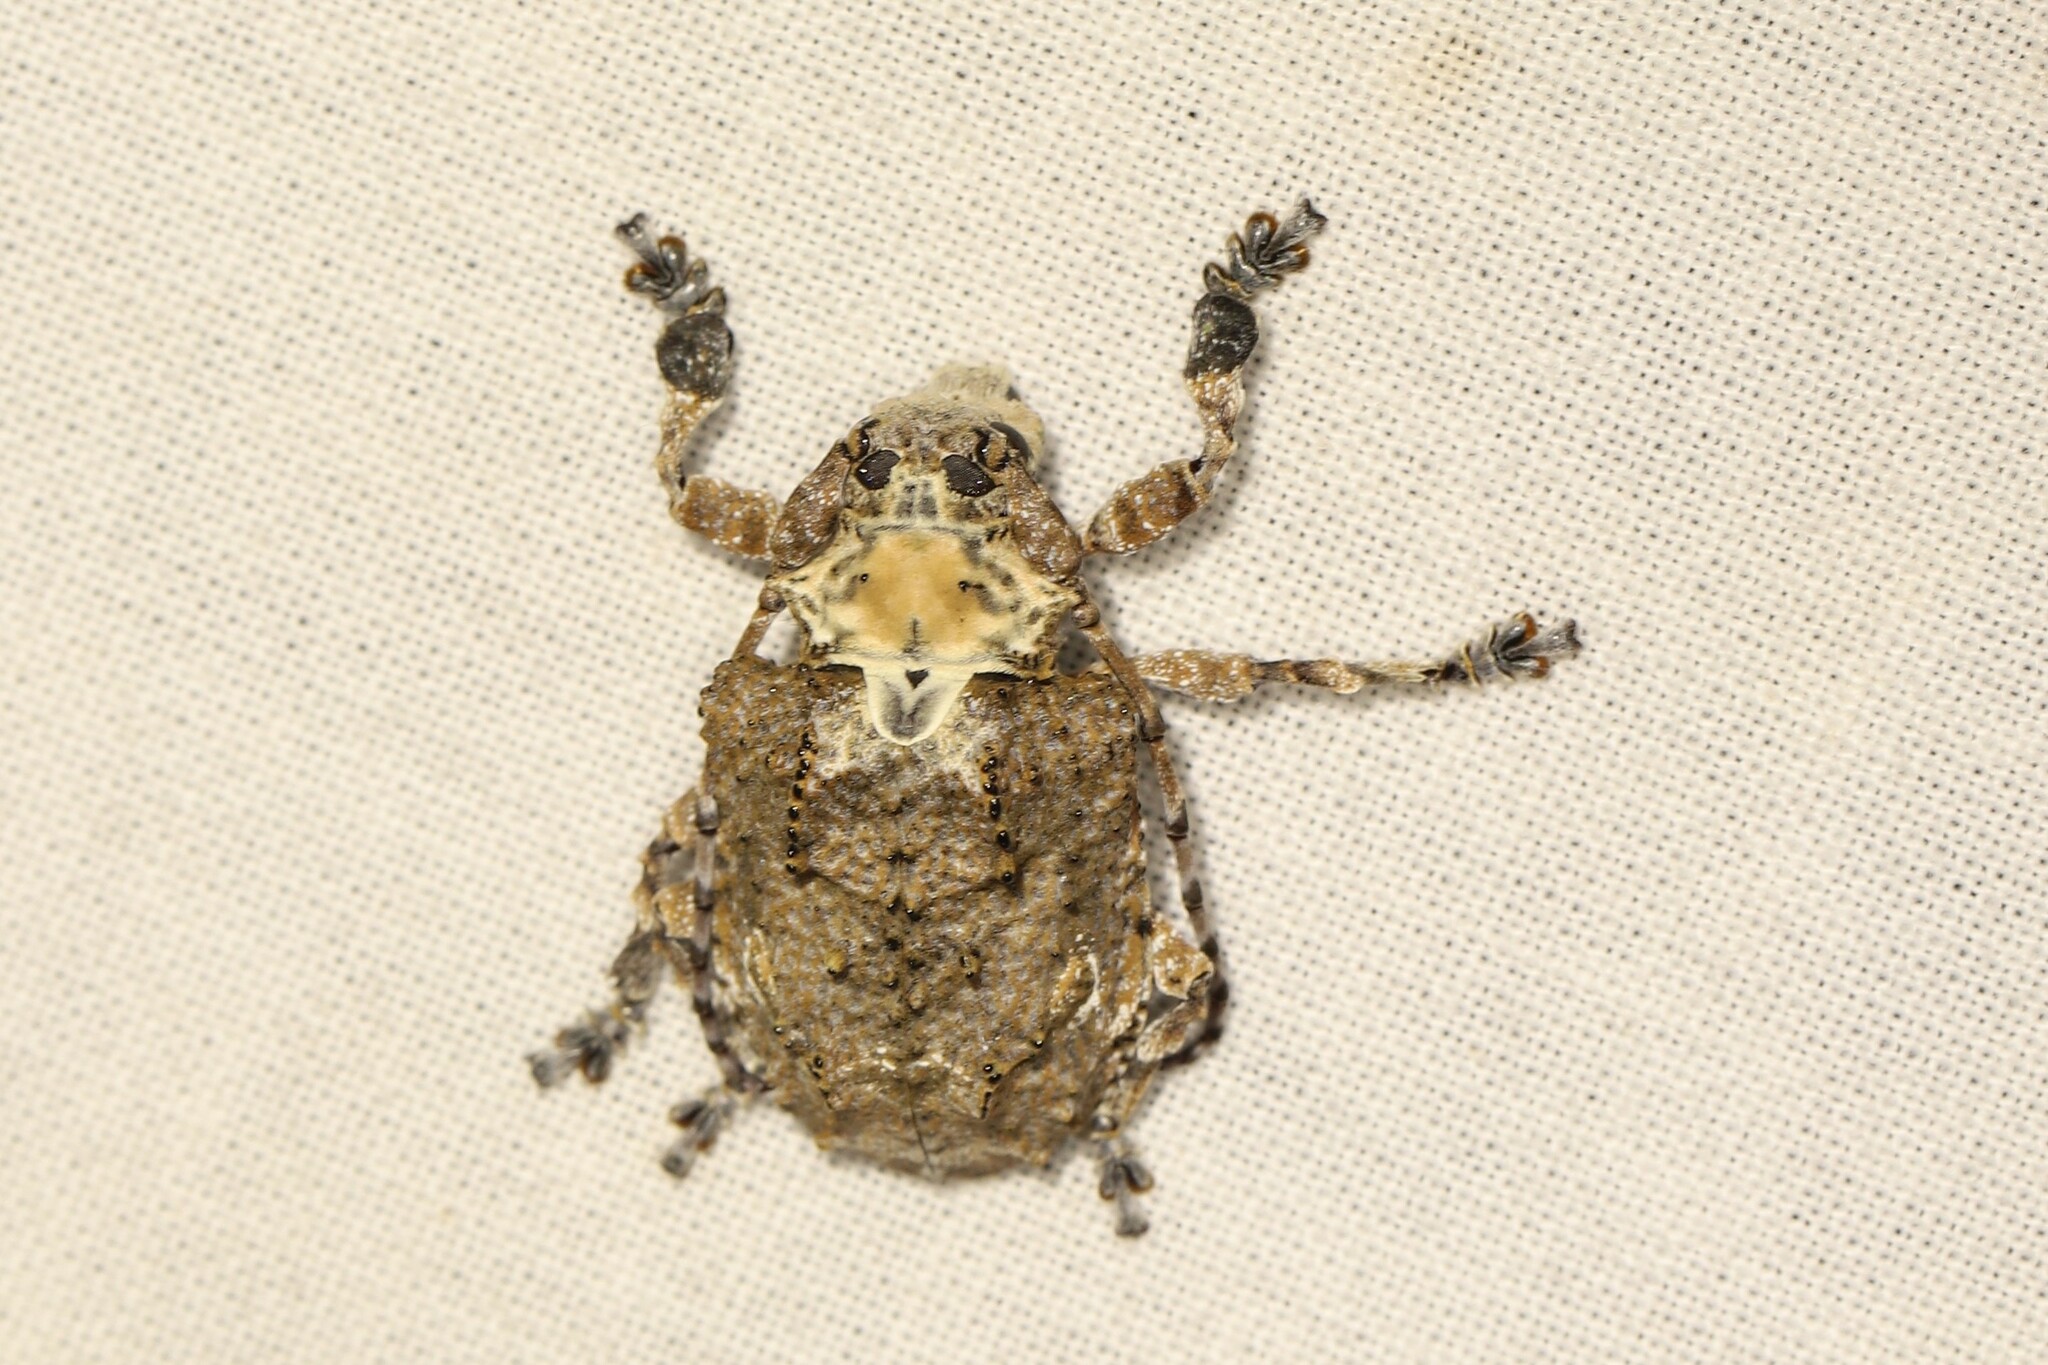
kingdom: Animalia
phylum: Arthropoda
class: Insecta
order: Coleoptera
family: Cerambycidae
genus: Onychocerus
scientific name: Onychocerus crassus
